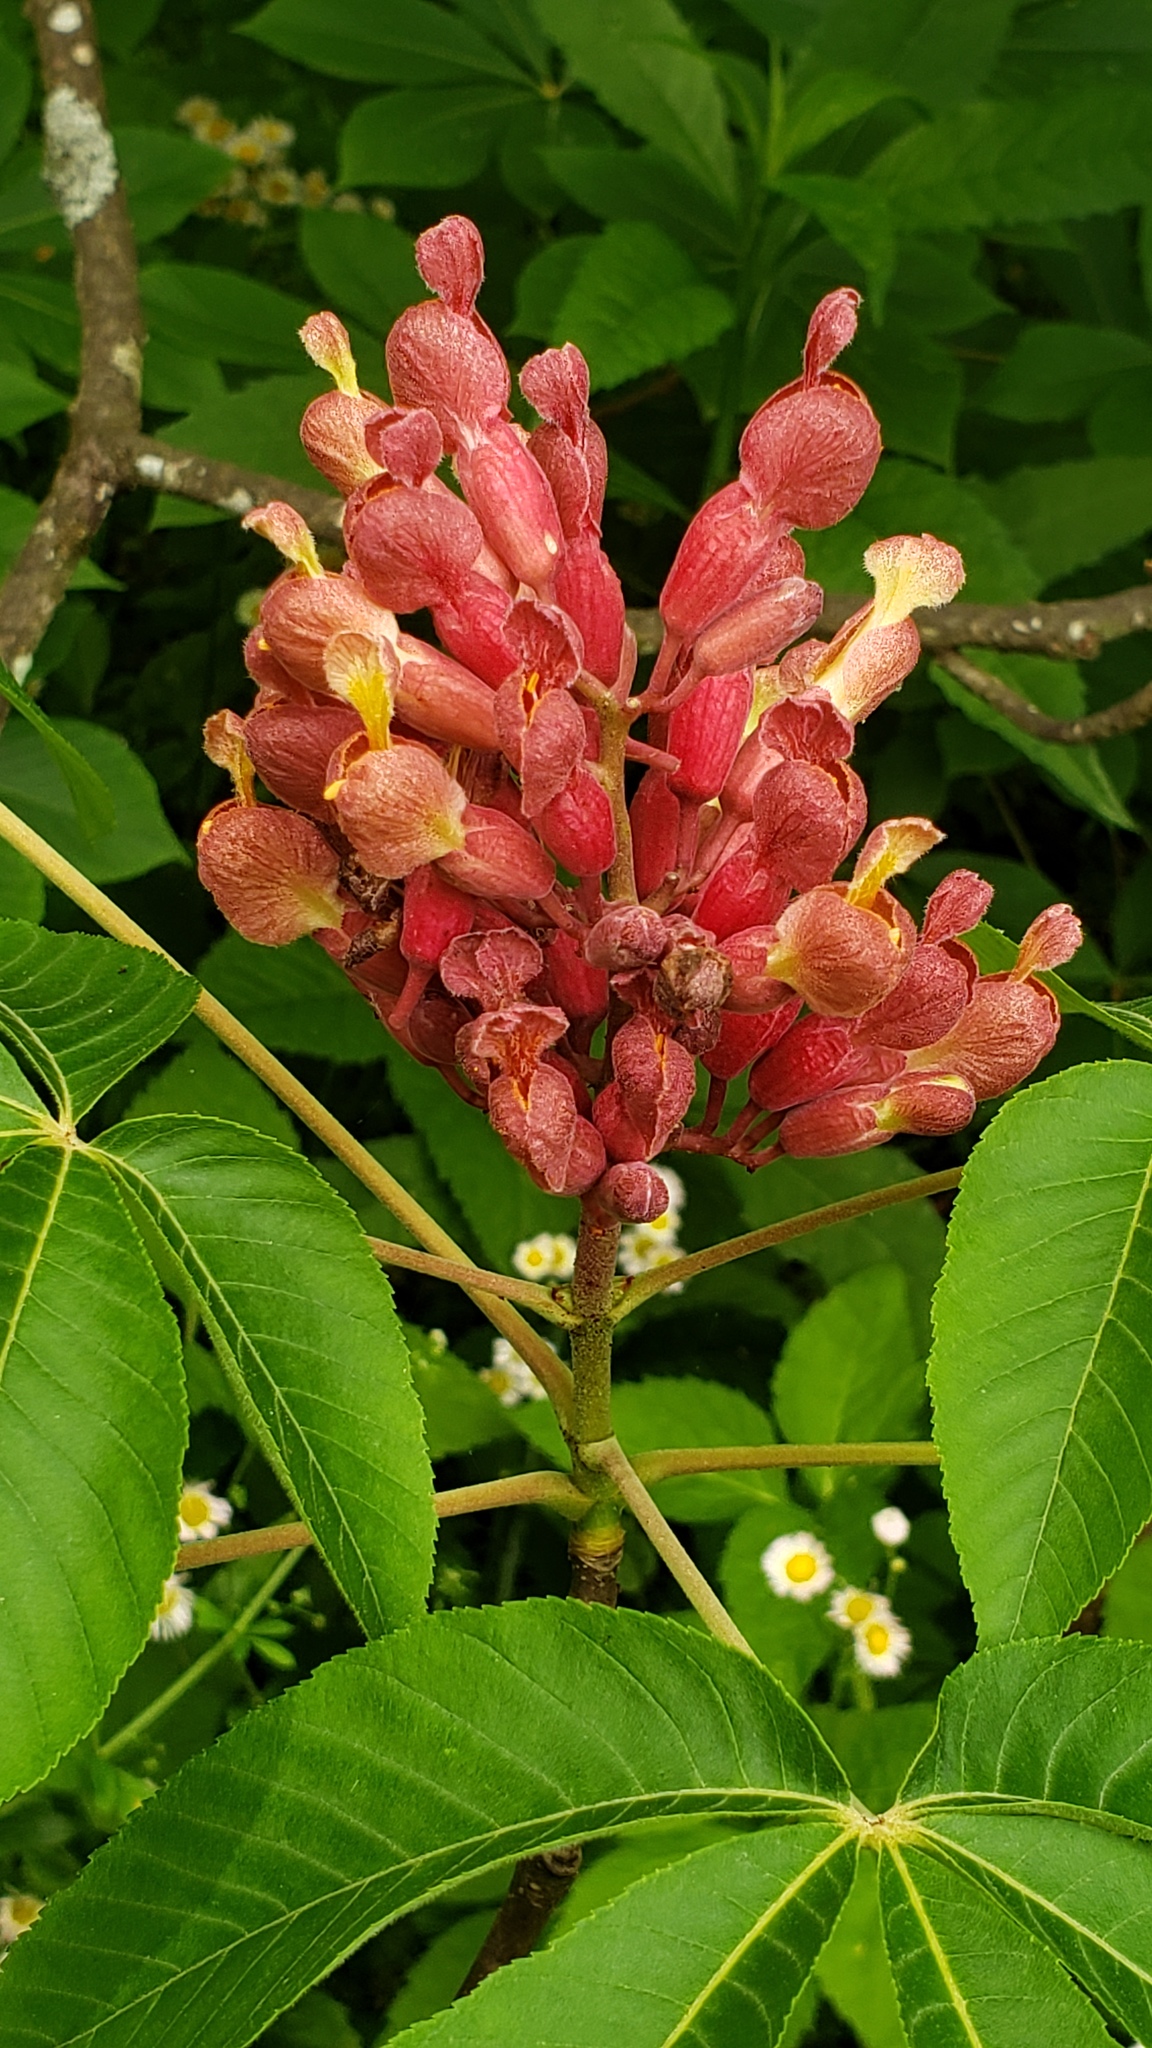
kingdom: Plantae
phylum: Tracheophyta
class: Magnoliopsida
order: Sapindales
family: Sapindaceae
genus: Aesculus
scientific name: Aesculus pavia
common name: Red buckeye
